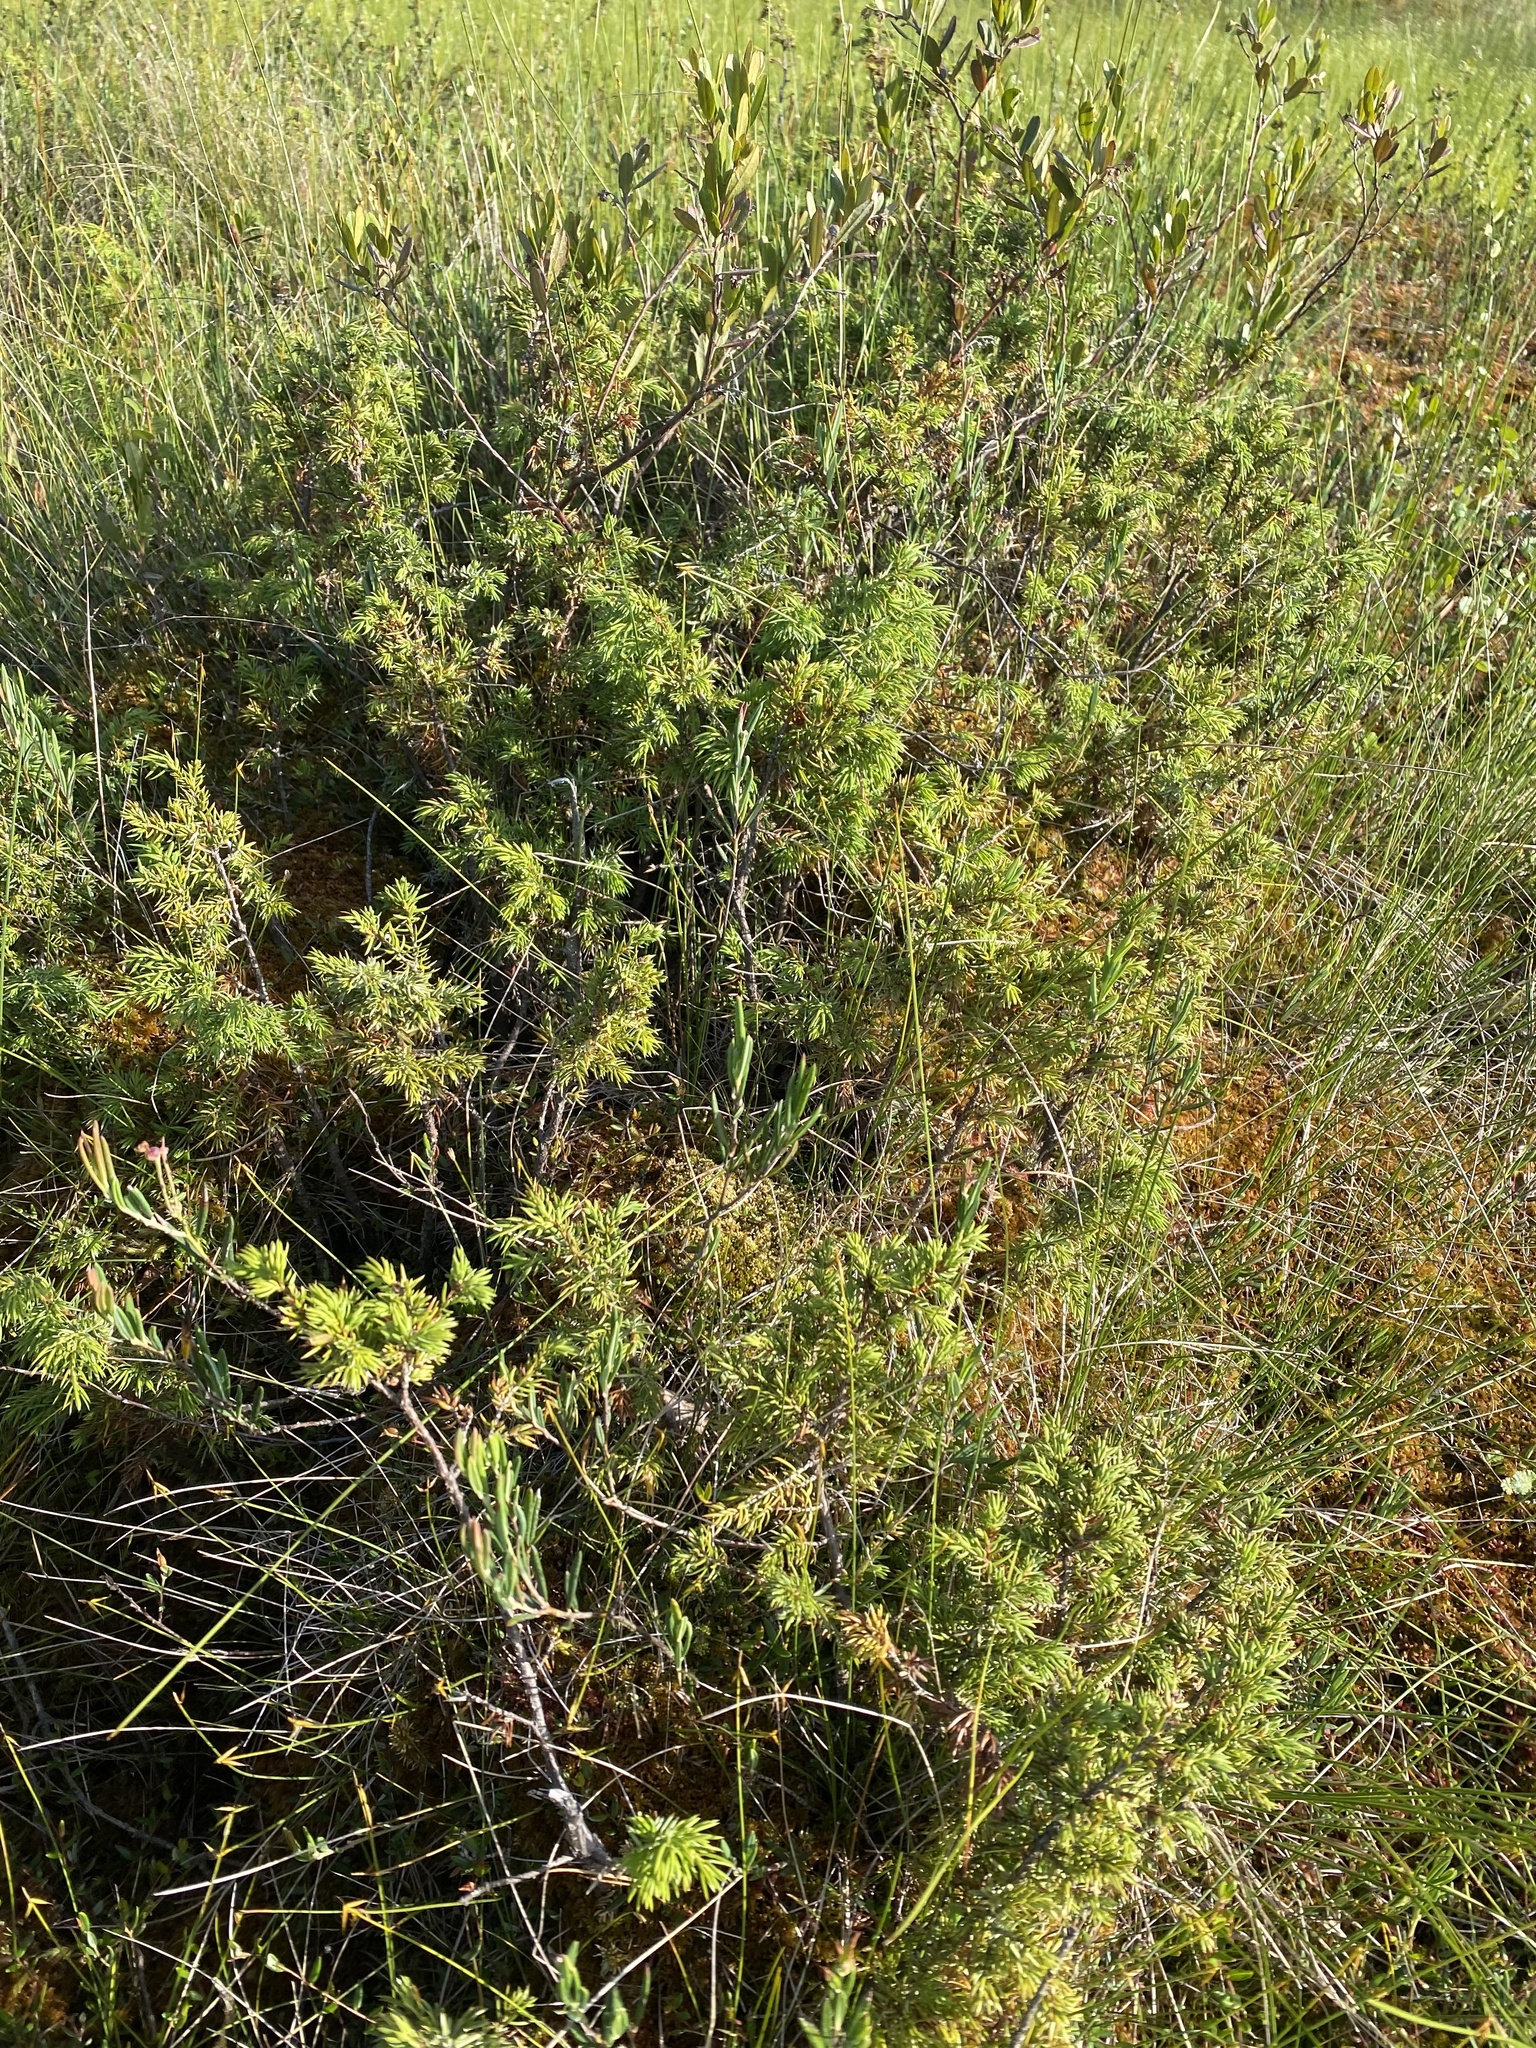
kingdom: Plantae
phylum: Tracheophyta
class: Pinopsida
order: Pinales
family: Cupressaceae
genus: Juniperus
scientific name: Juniperus communis
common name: Common juniper
